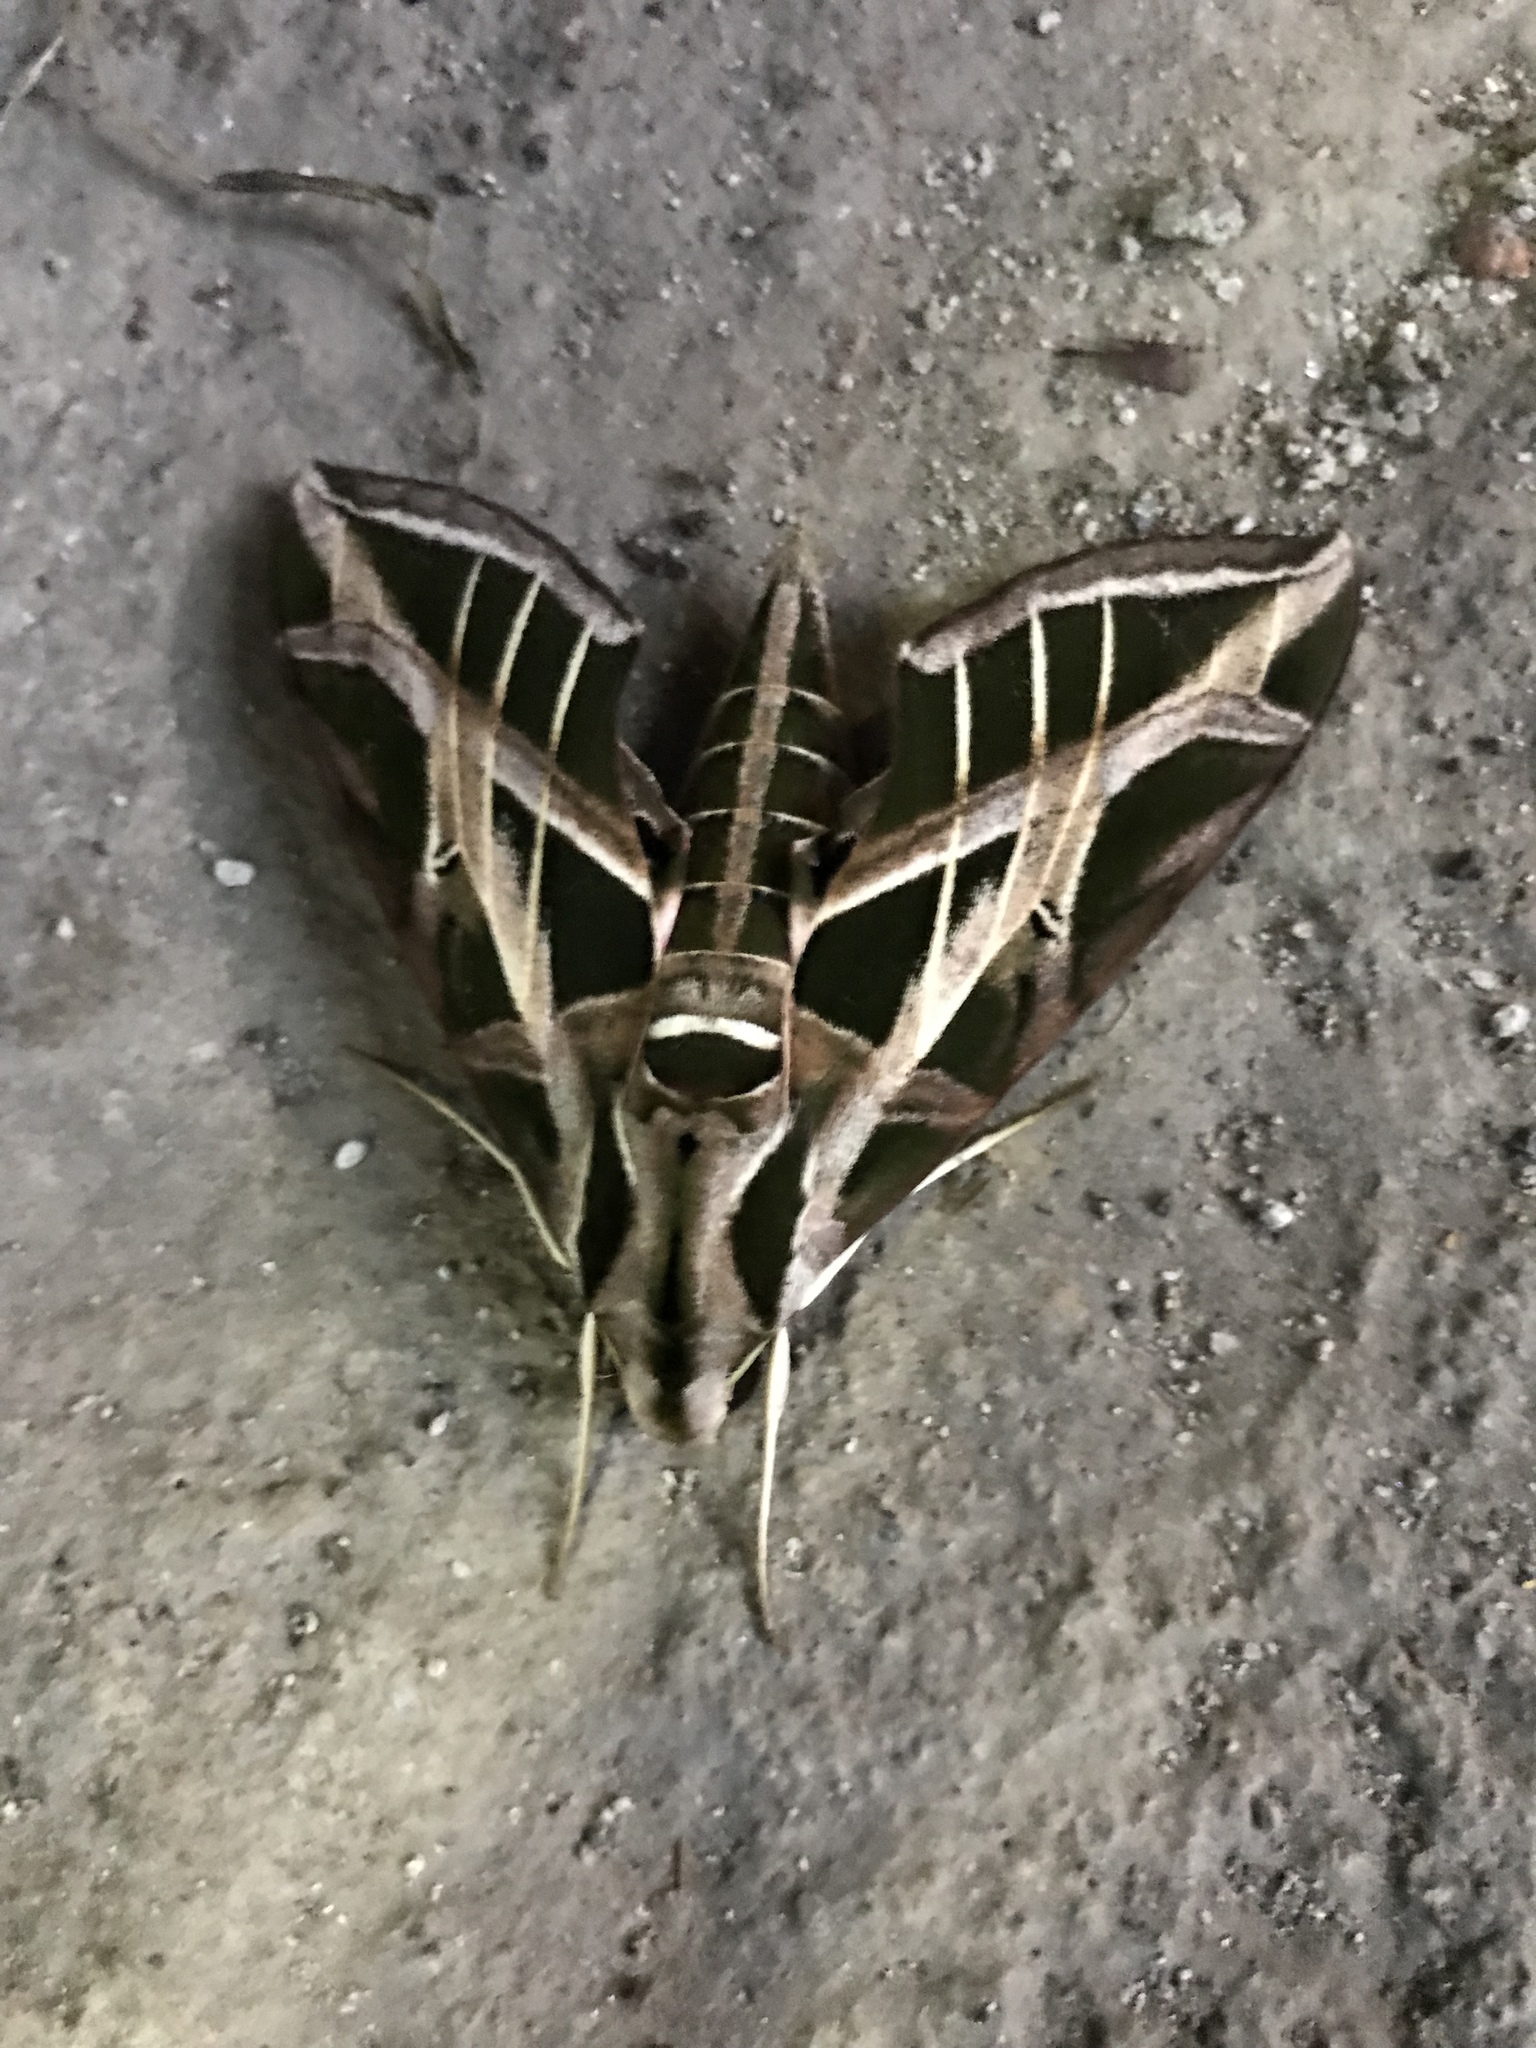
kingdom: Animalia
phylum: Arthropoda
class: Insecta
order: Lepidoptera
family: Sphingidae
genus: Eumorpha
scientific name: Eumorpha vitis
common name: Vine sphinx
